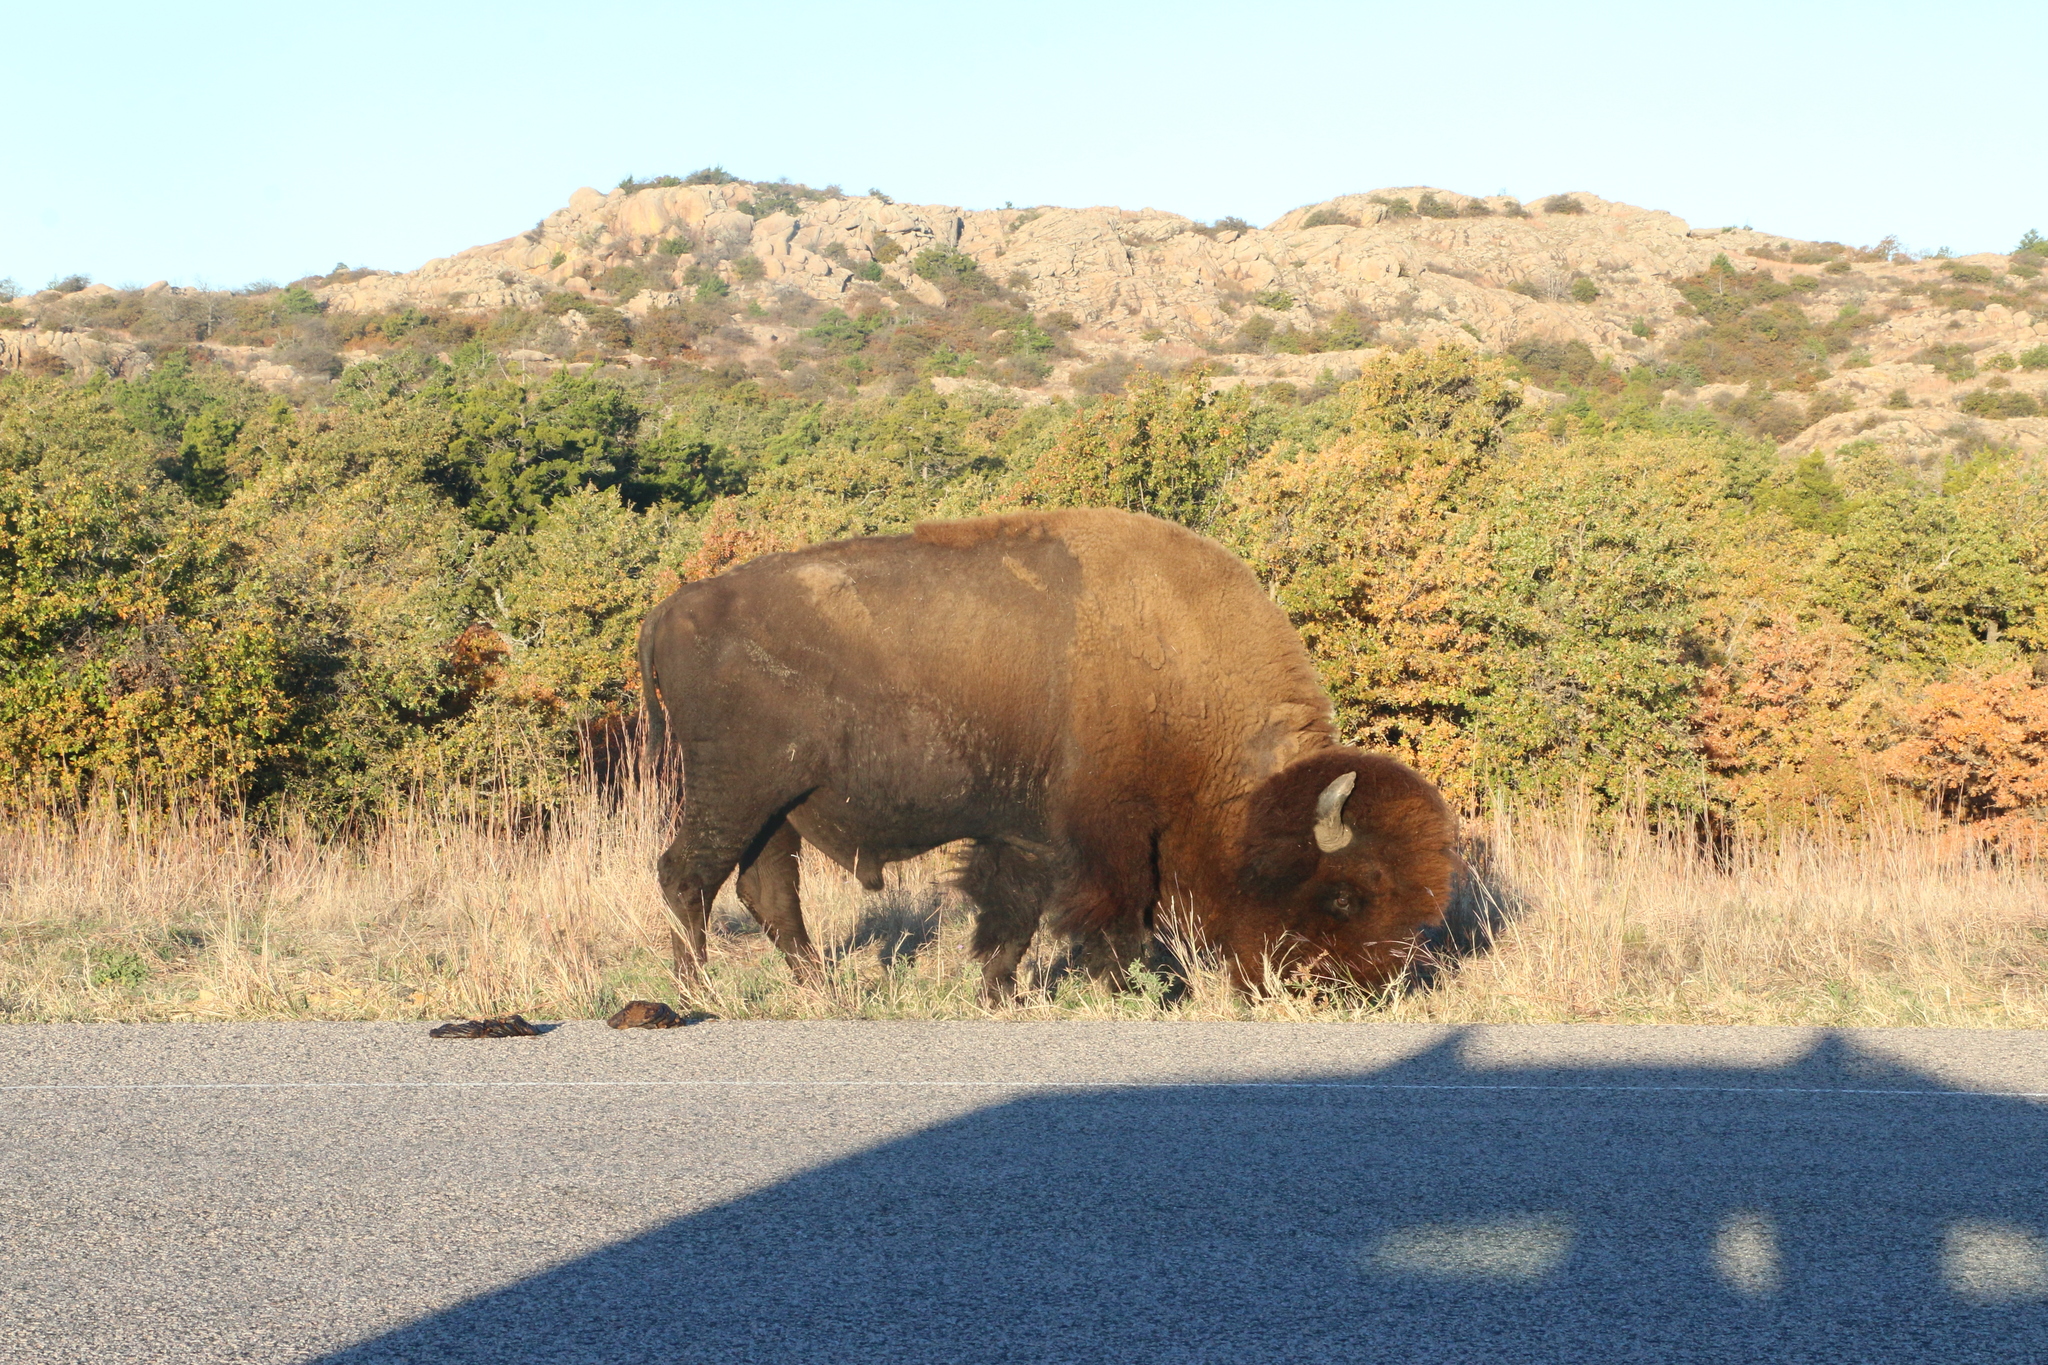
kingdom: Animalia
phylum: Chordata
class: Mammalia
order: Artiodactyla
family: Bovidae
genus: Bison
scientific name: Bison bison
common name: American bison
